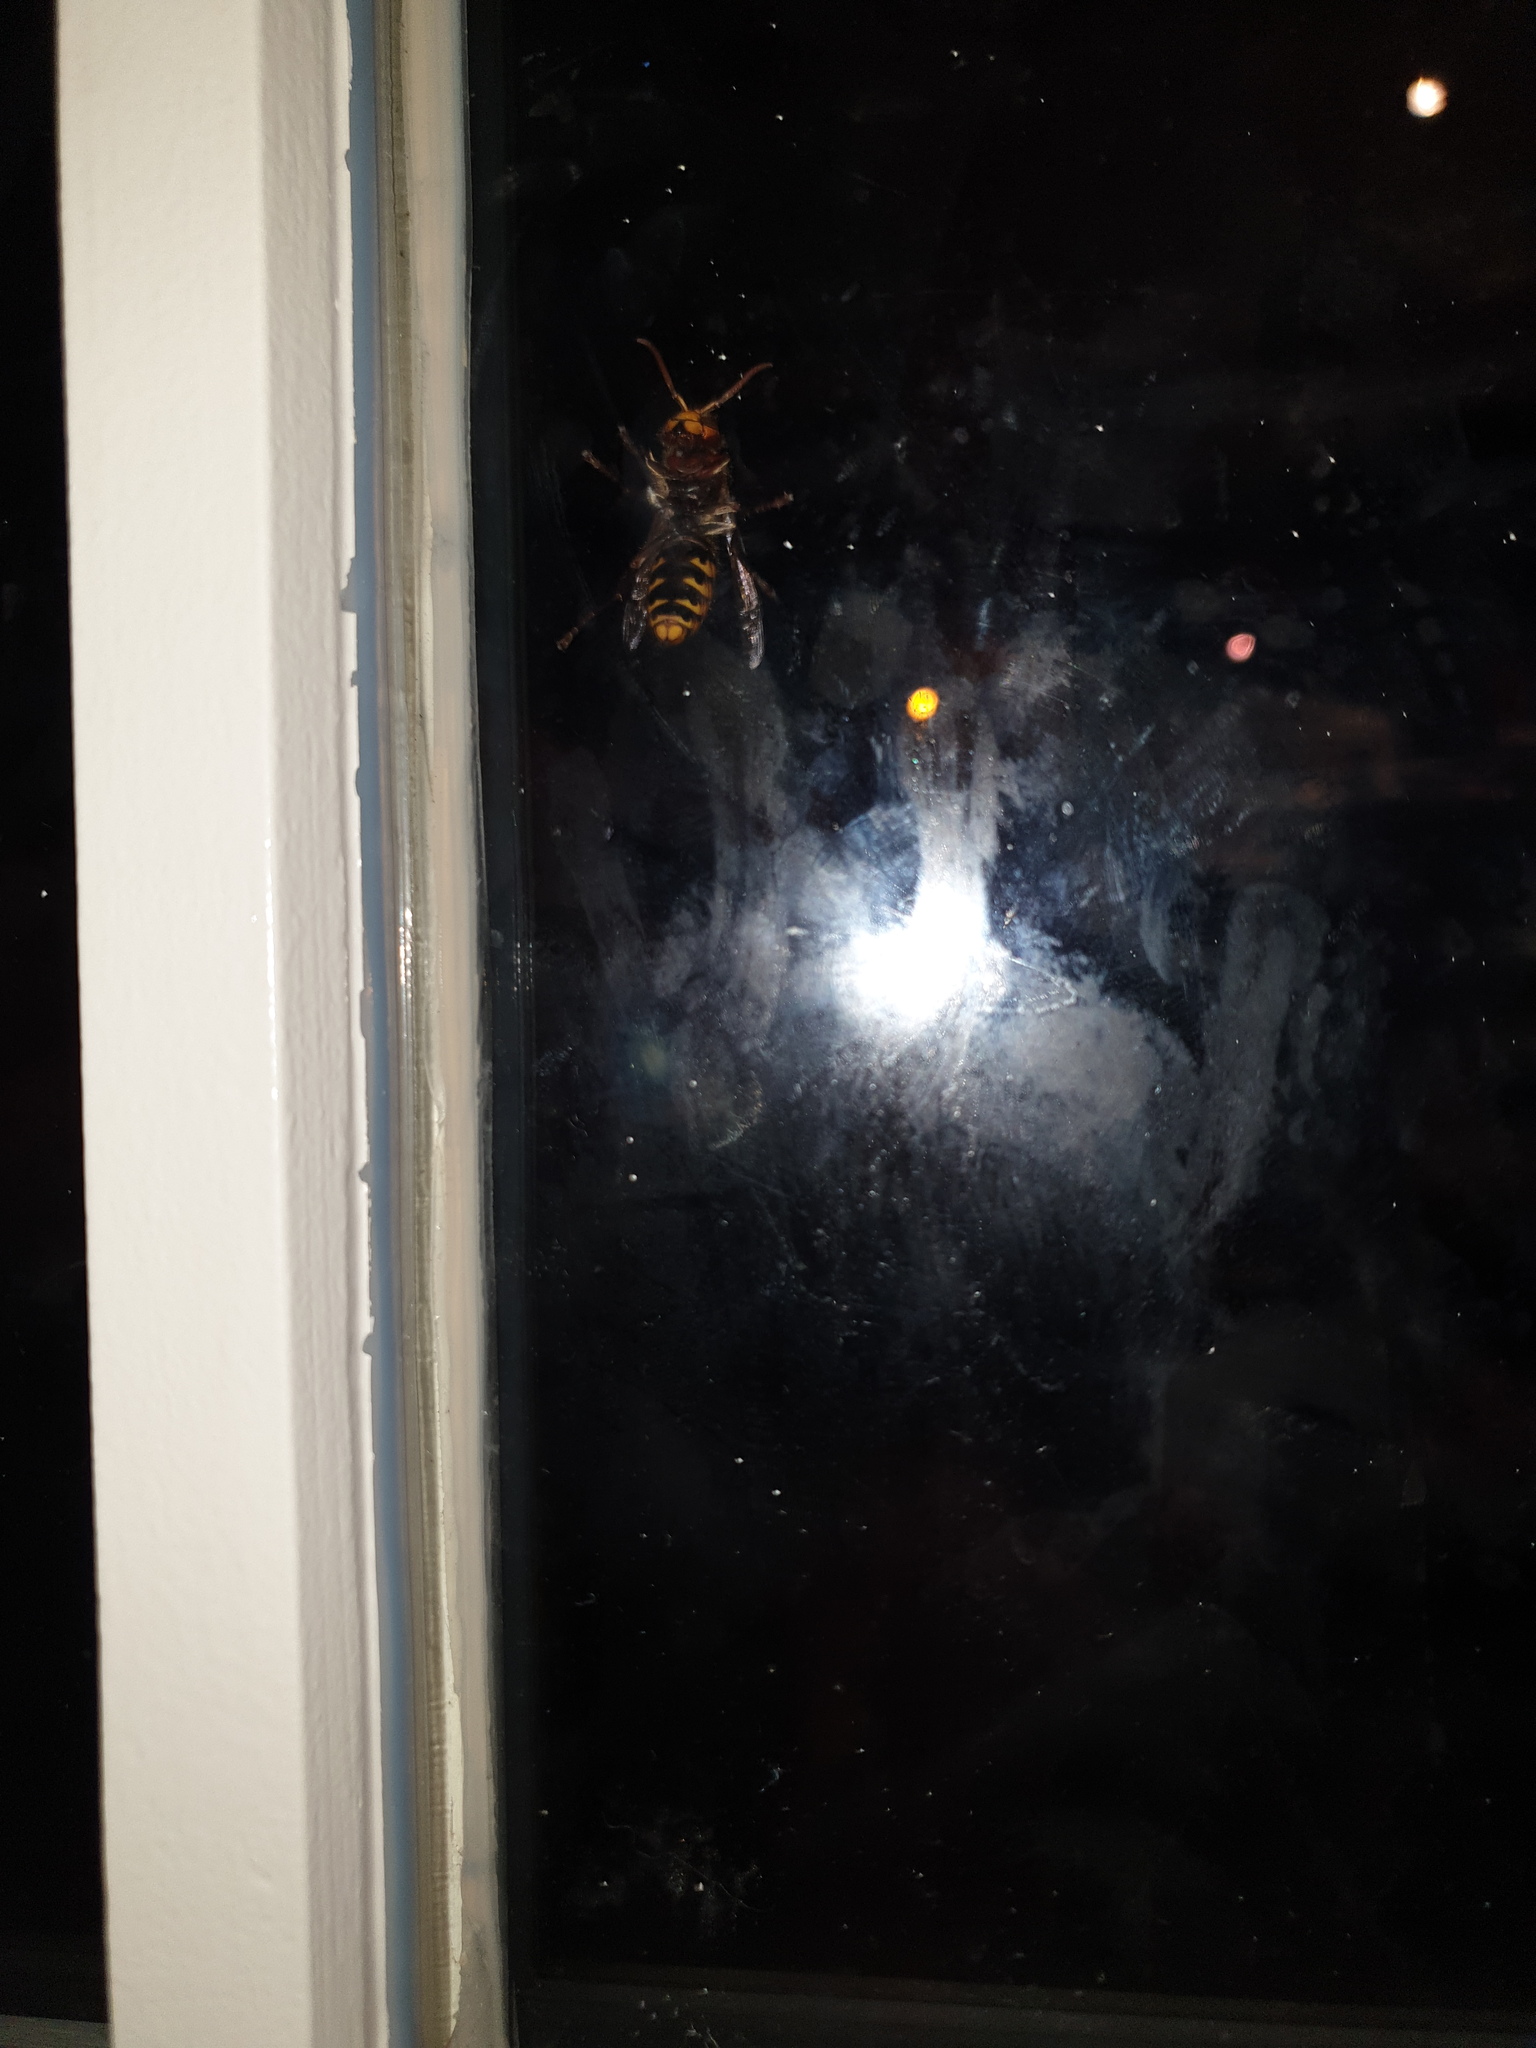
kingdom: Animalia
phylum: Arthropoda
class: Insecta
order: Hymenoptera
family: Vespidae
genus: Vespa
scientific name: Vespa crabro
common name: Hornet
